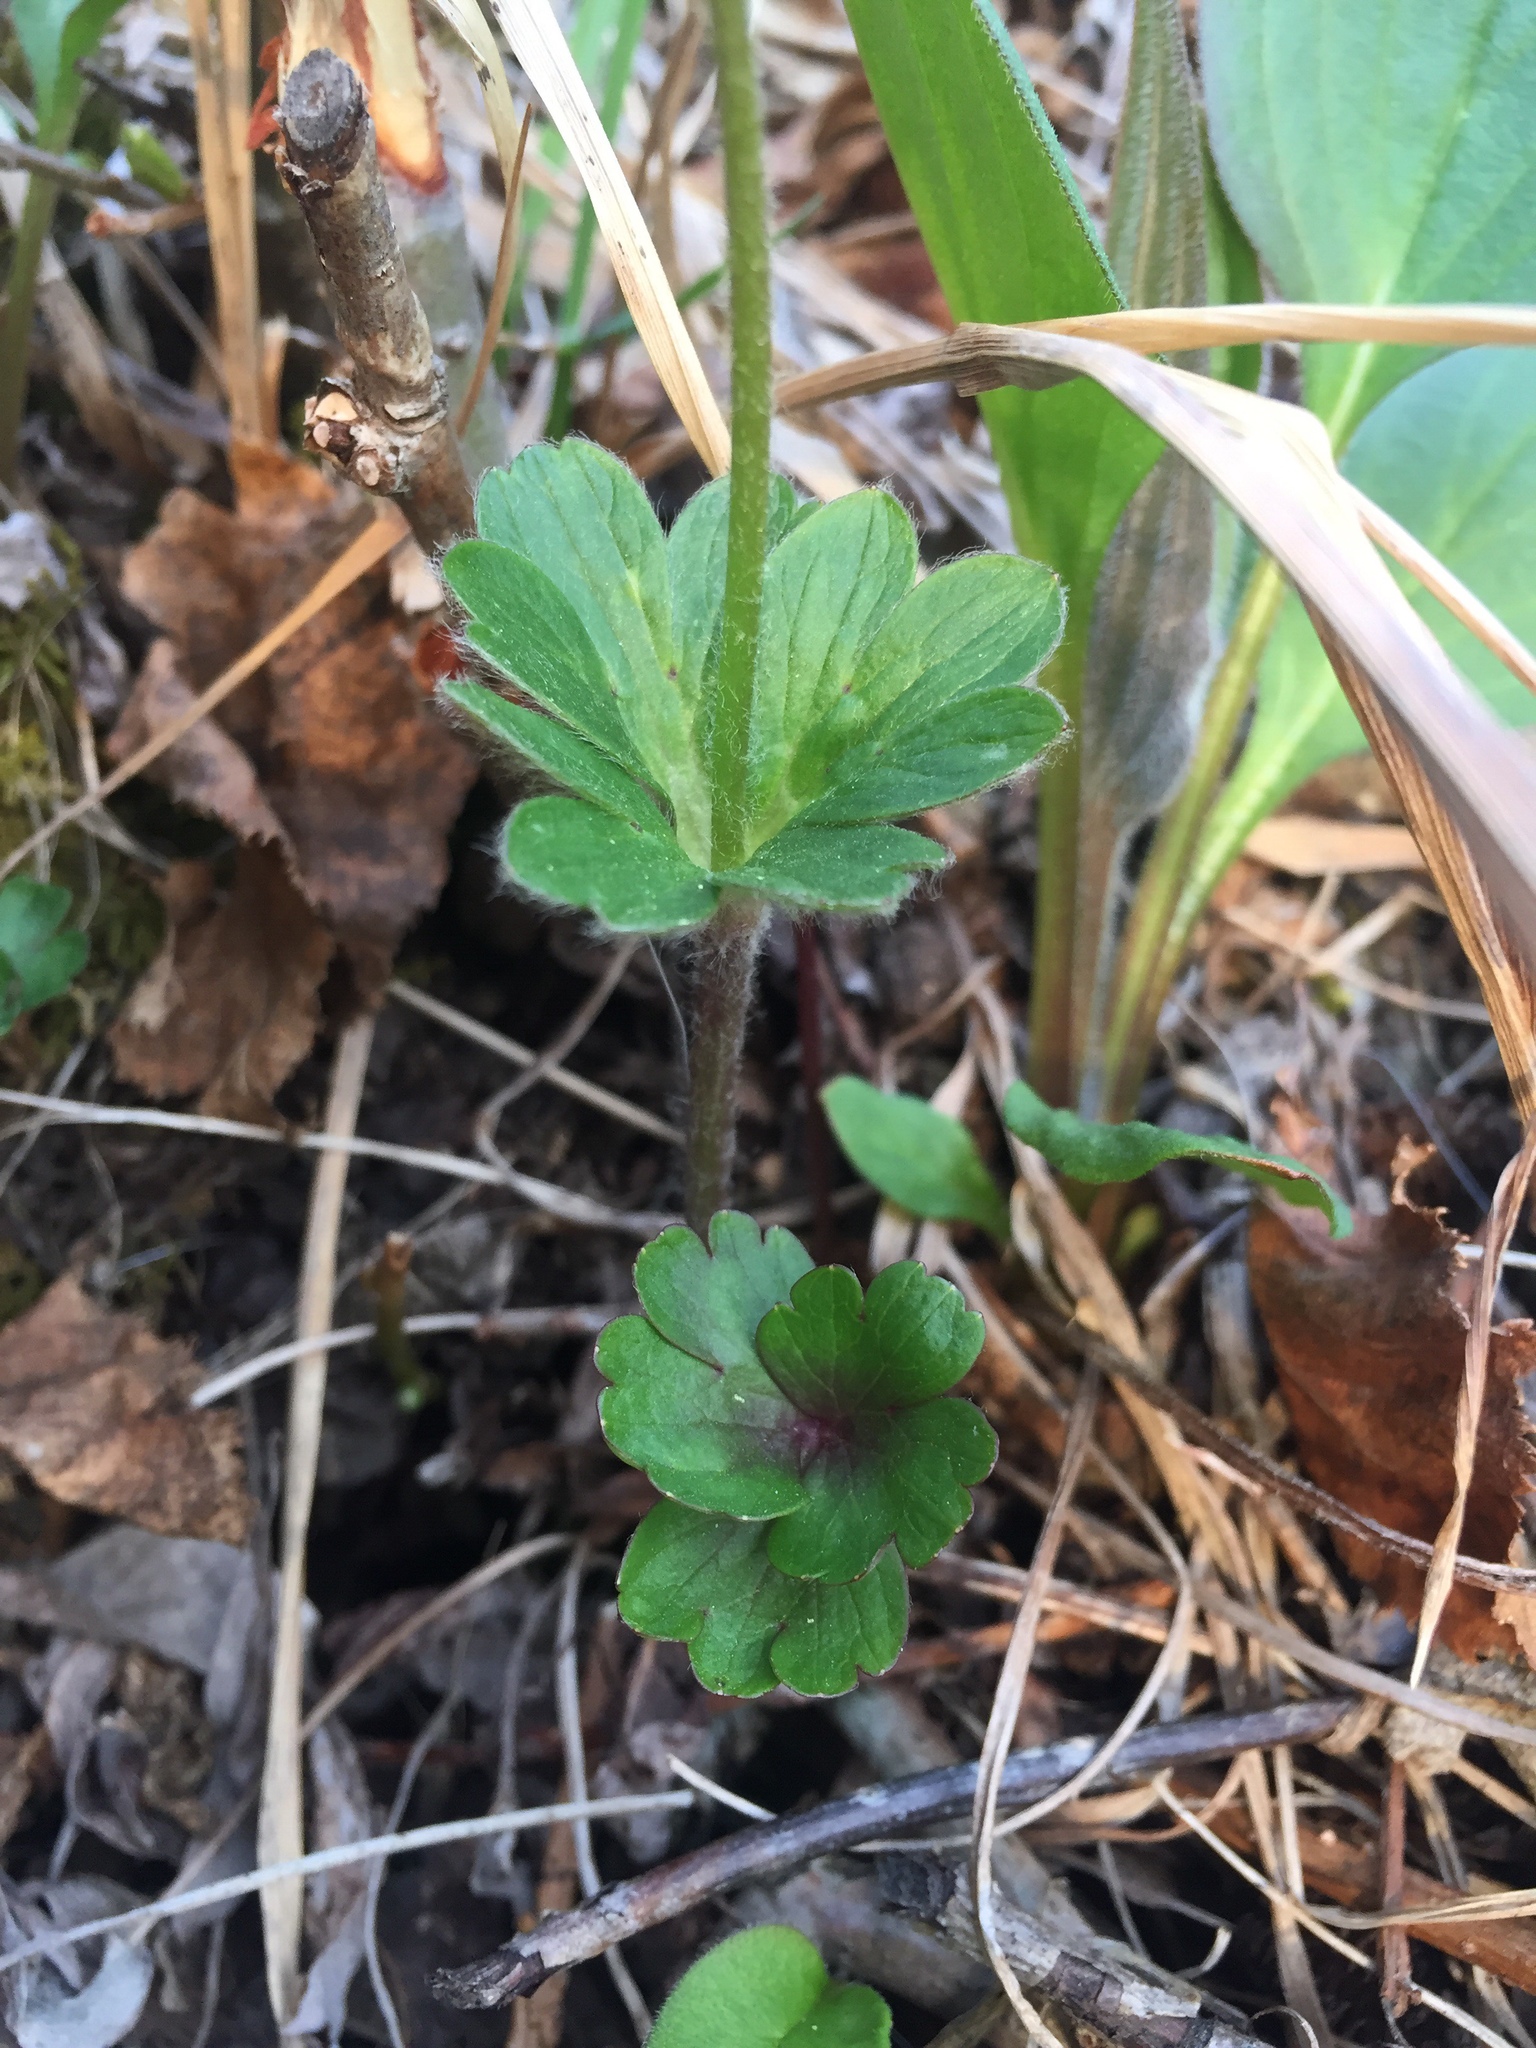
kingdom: Plantae
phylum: Tracheophyta
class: Magnoliopsida
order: Ranunculales
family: Ranunculaceae
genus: Anemone
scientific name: Anemone parviflora
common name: Northern anemone
